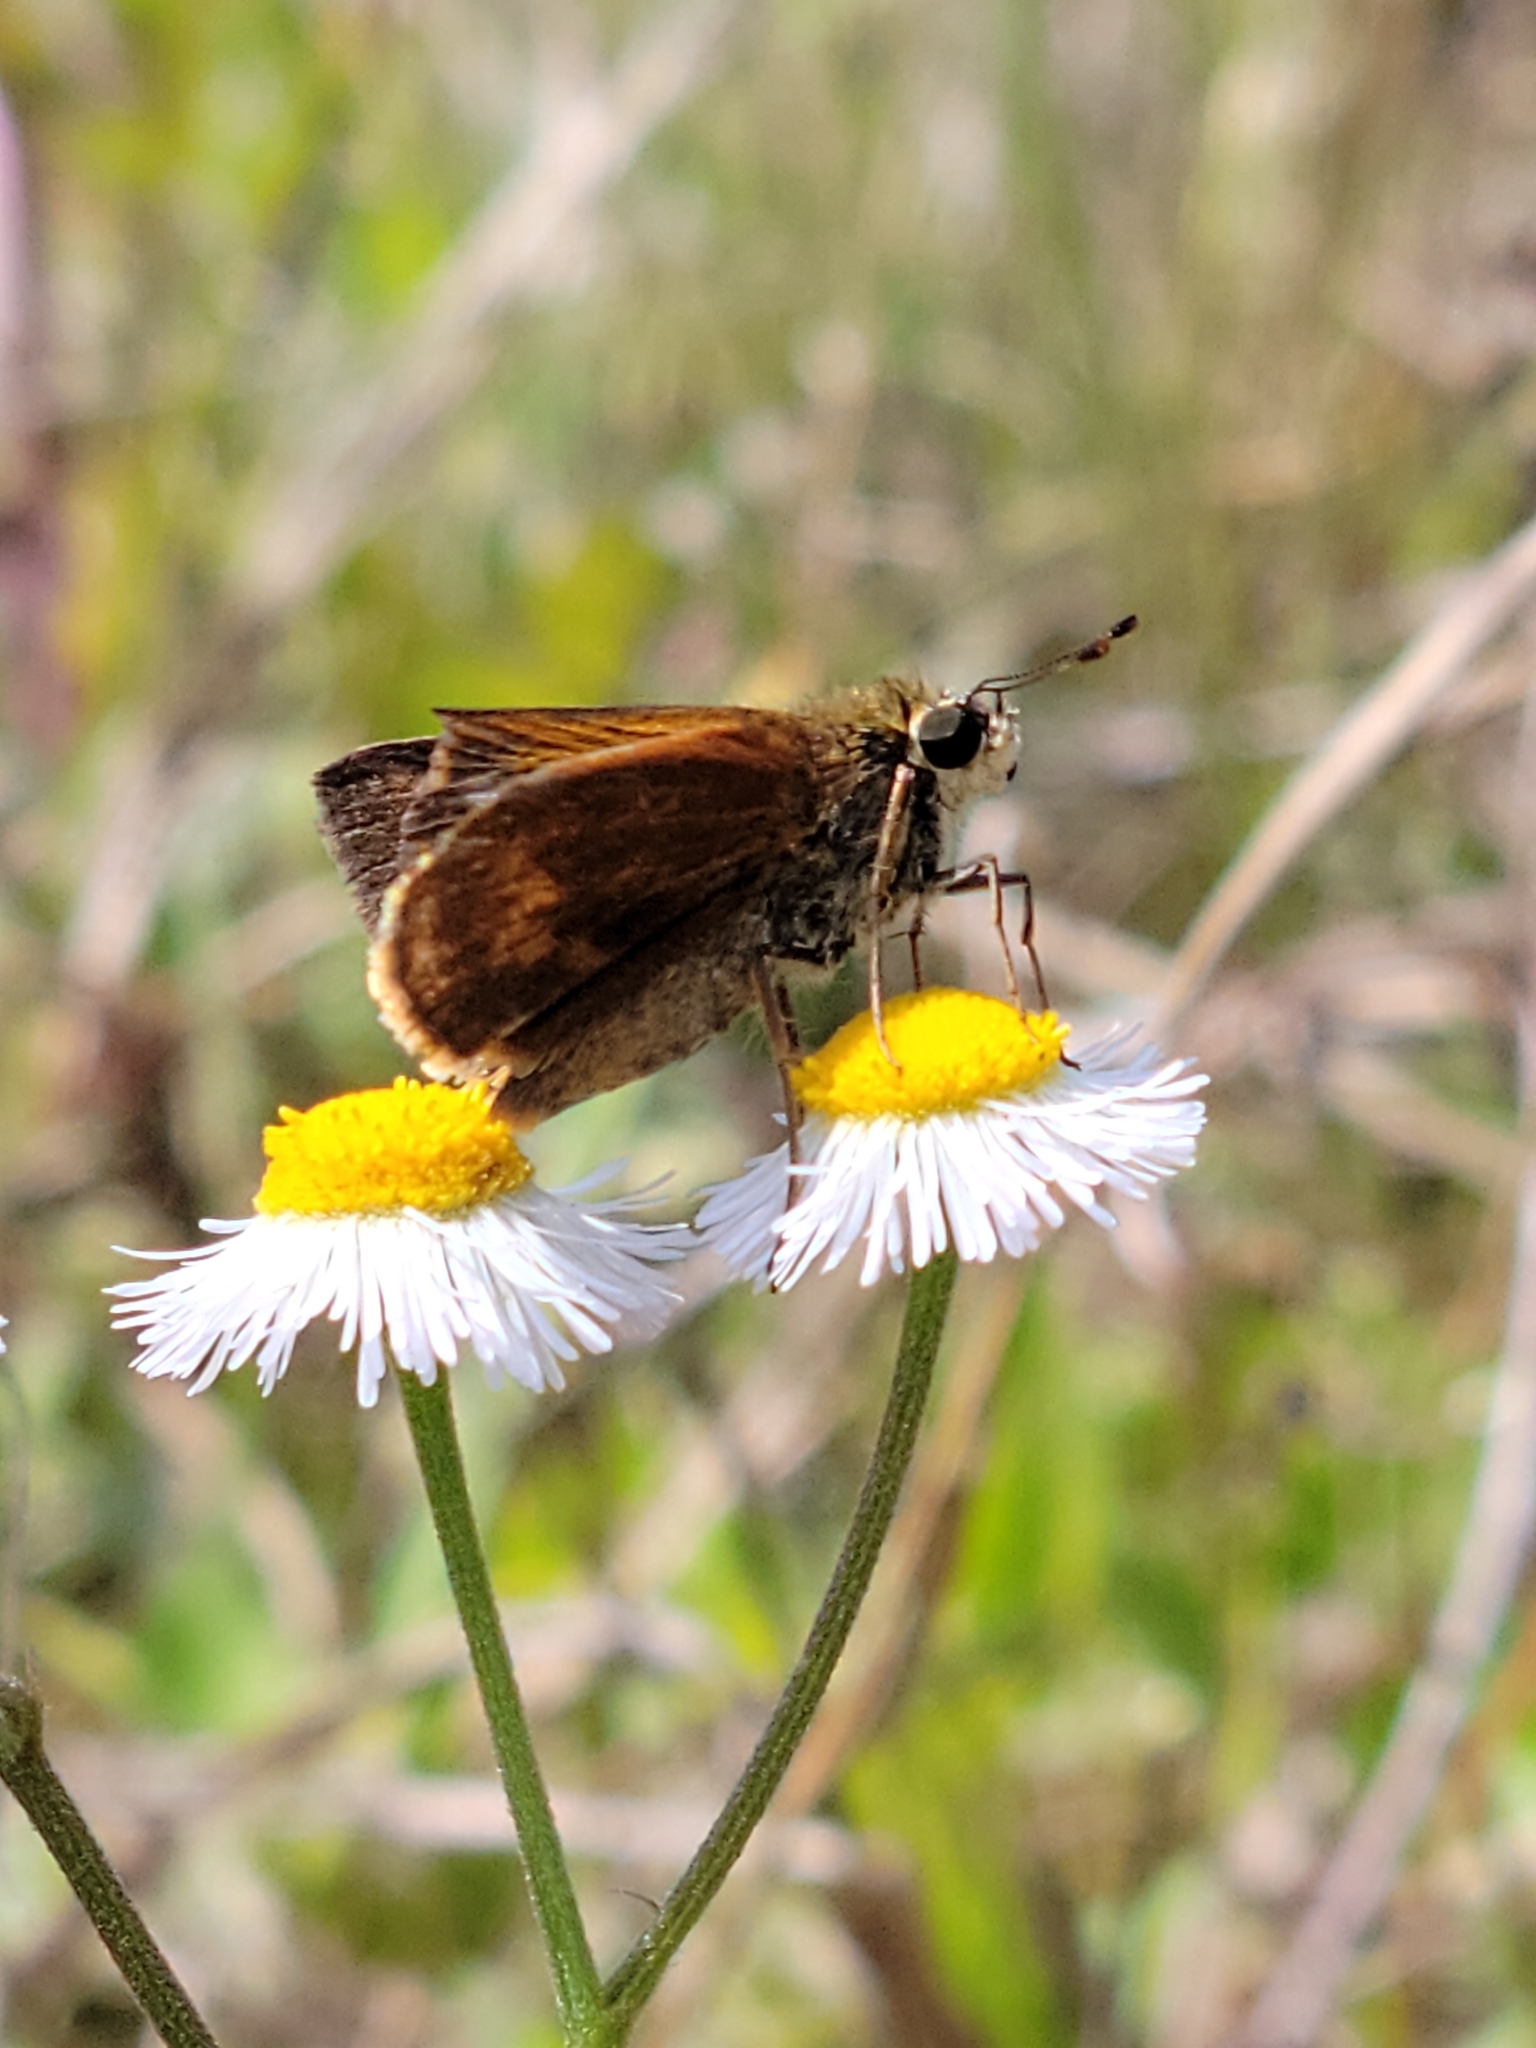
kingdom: Animalia
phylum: Arthropoda
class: Insecta
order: Lepidoptera
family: Hesperiidae
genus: Polites
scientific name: Polites otho
